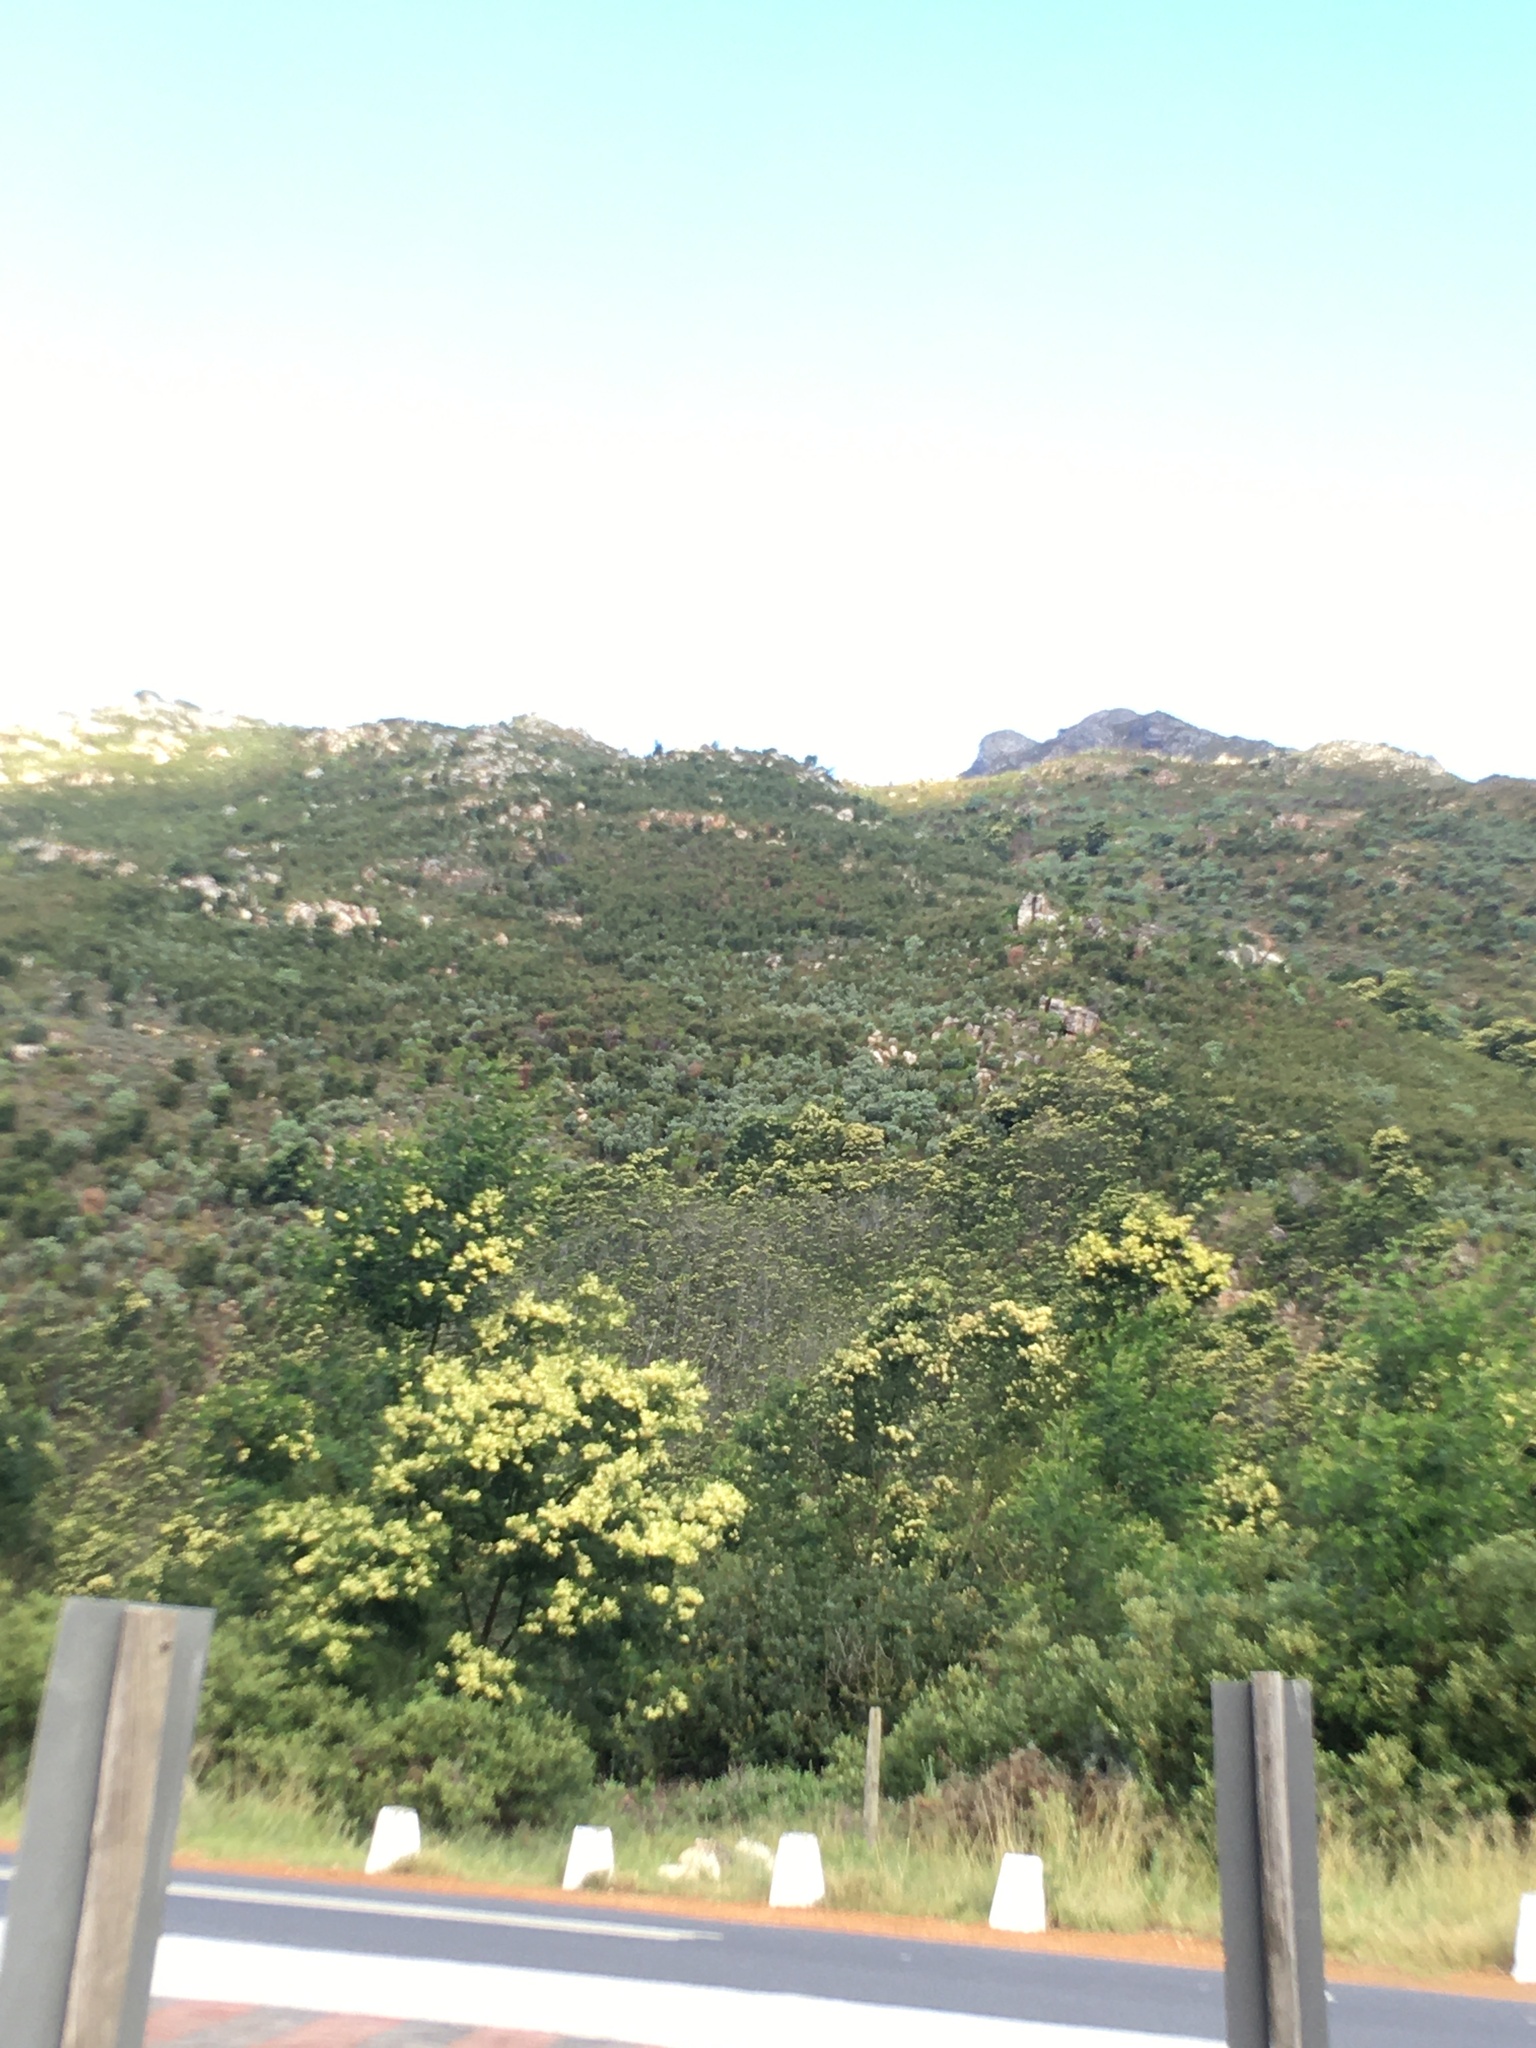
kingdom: Plantae
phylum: Tracheophyta
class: Magnoliopsida
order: Fabales
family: Fabaceae
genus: Paraserianthes
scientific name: Paraserianthes lophantha
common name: Plume albizia
